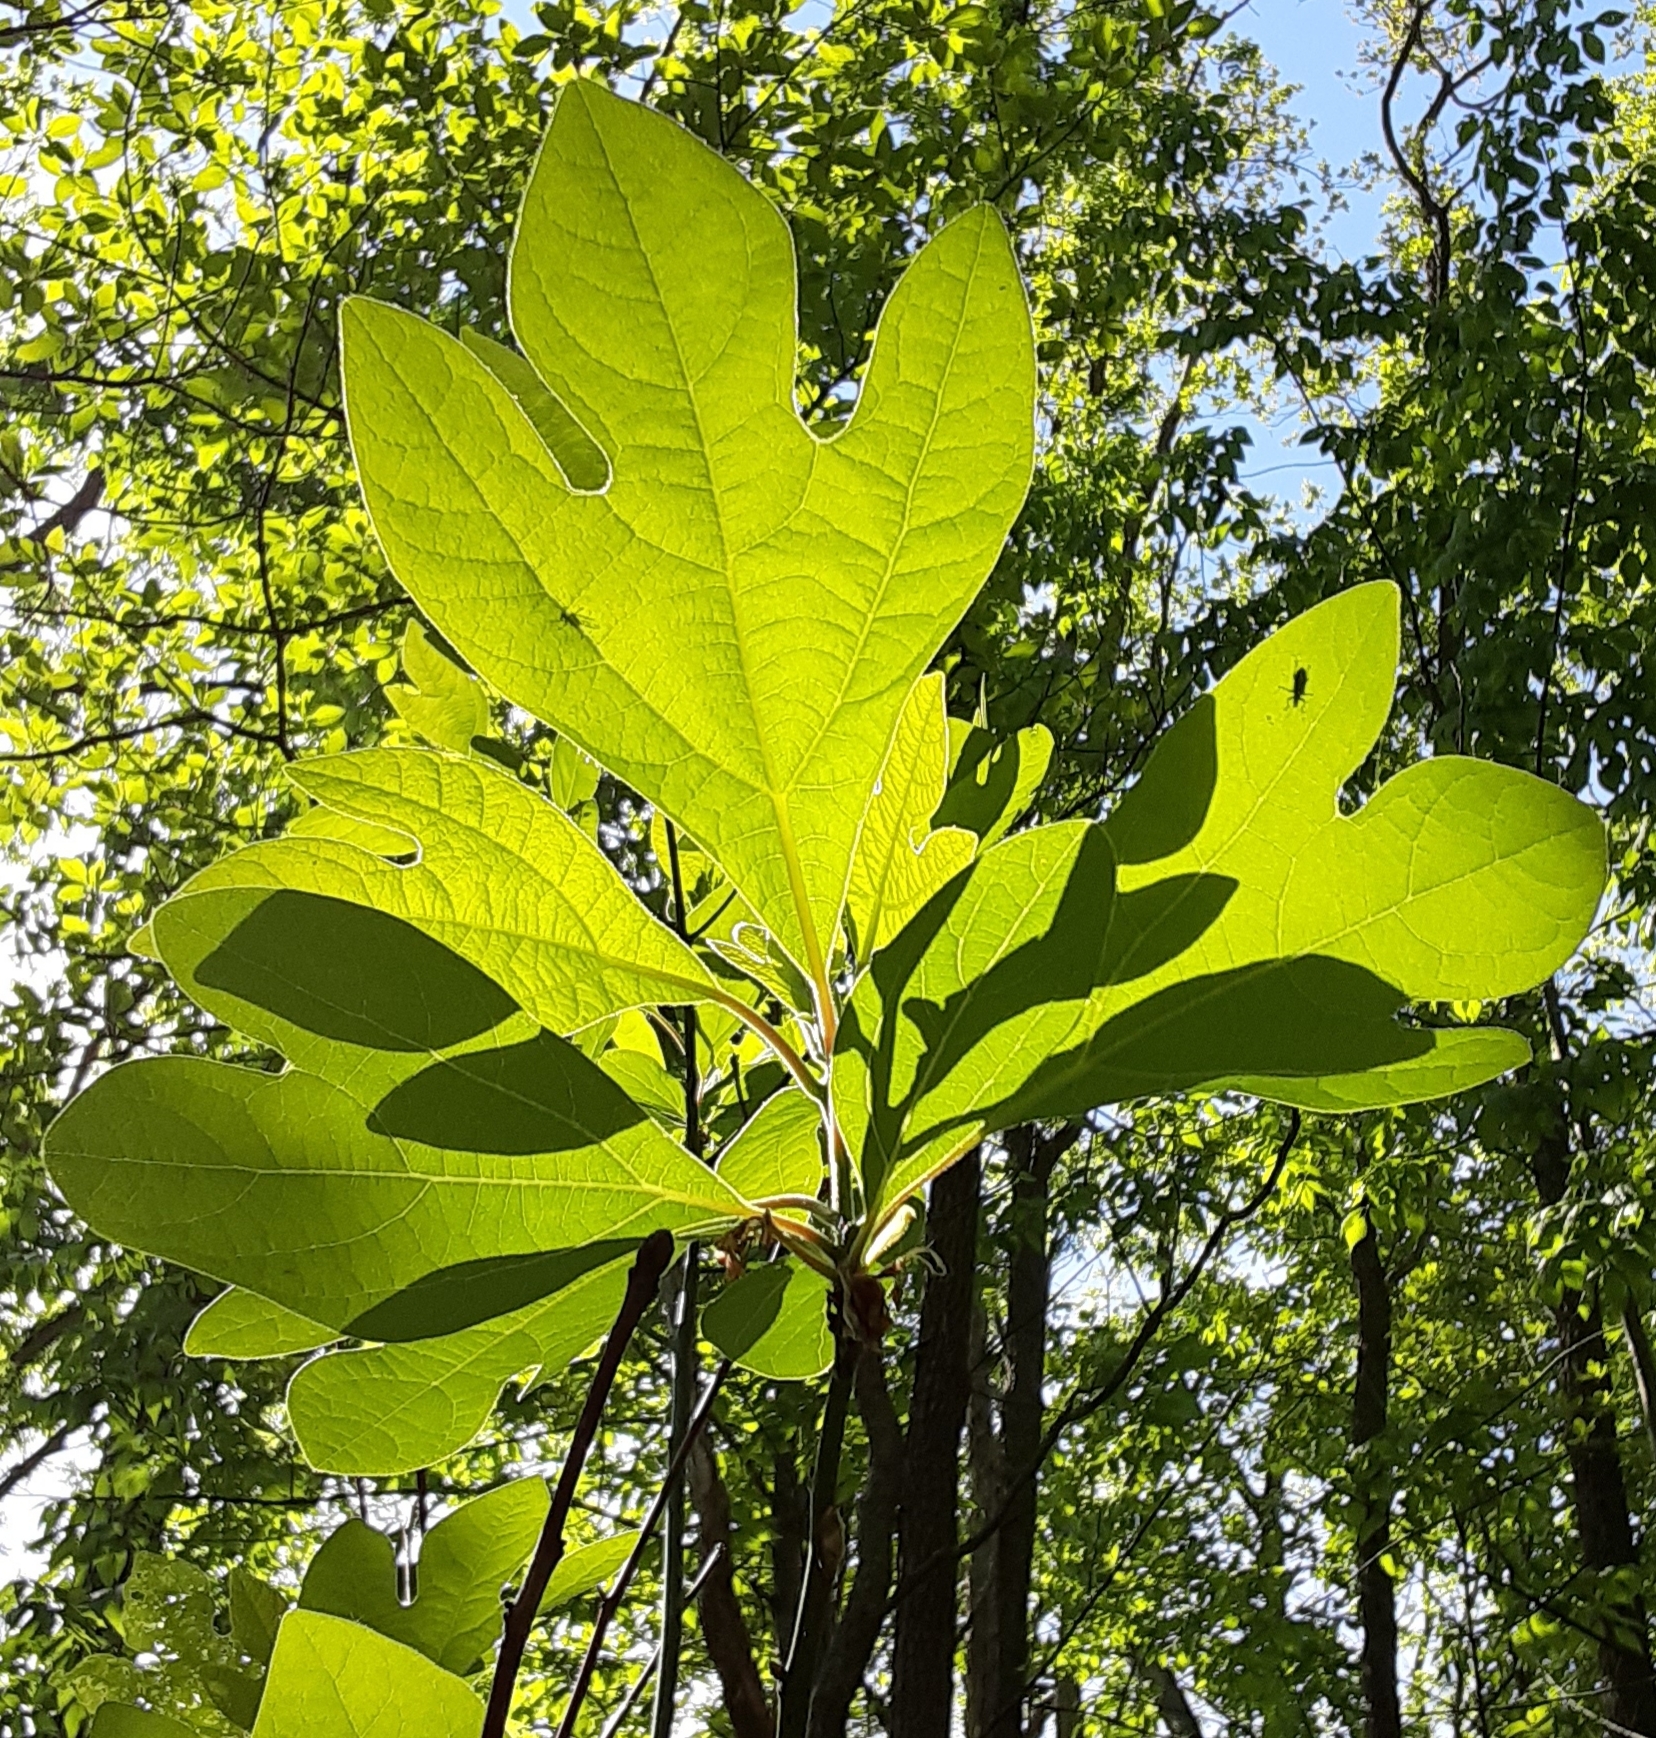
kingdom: Plantae
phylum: Tracheophyta
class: Magnoliopsida
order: Laurales
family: Lauraceae
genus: Sassafras
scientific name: Sassafras albidum
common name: Sassafras
